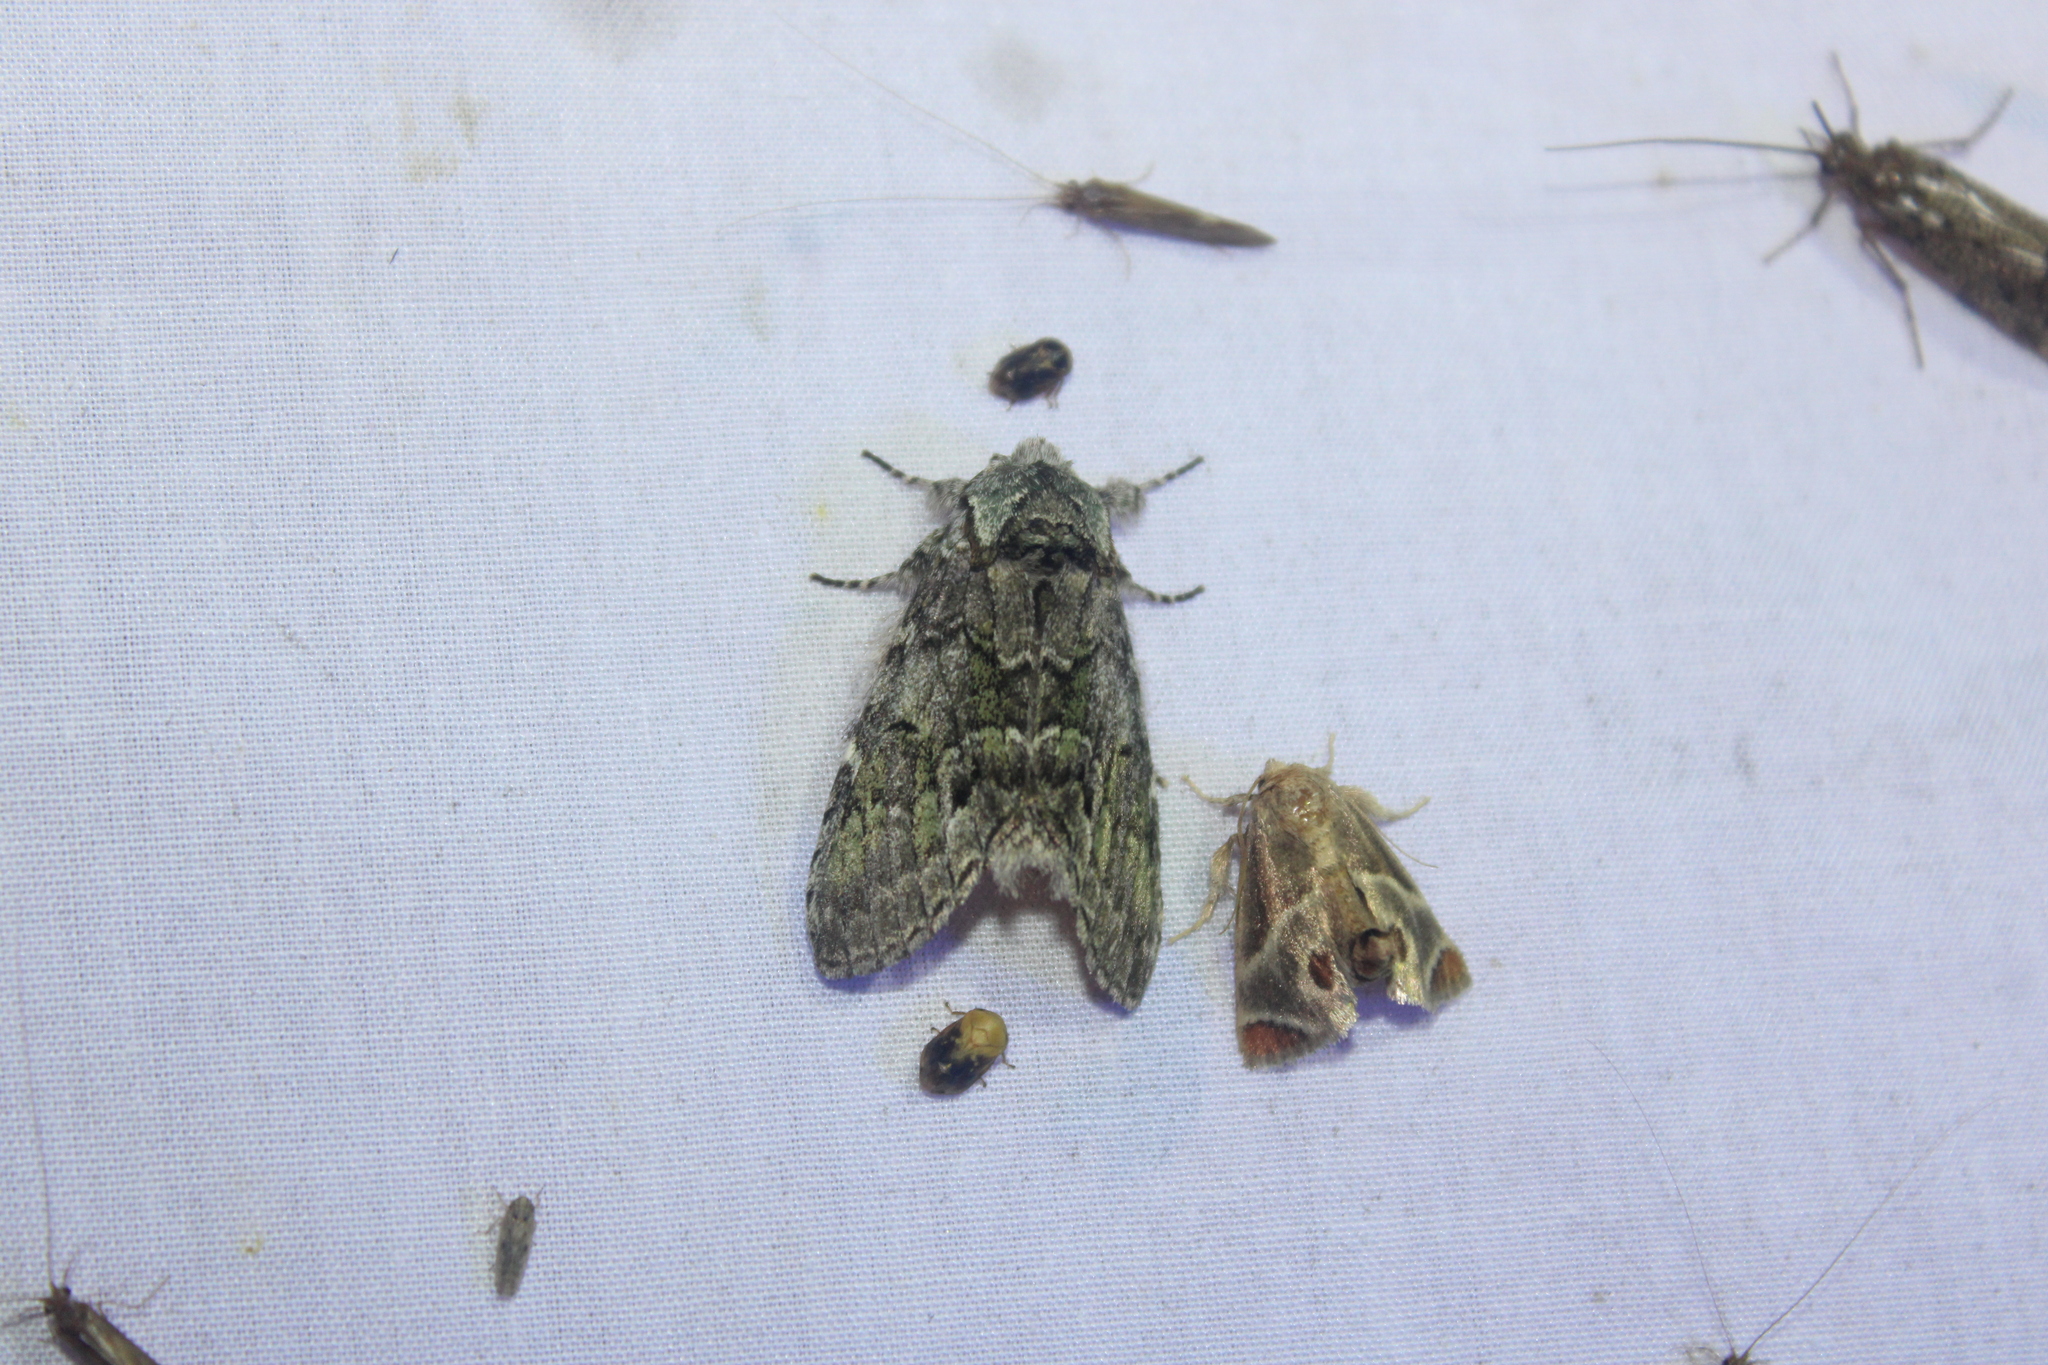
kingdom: Animalia
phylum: Arthropoda
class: Insecta
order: Lepidoptera
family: Notodontidae
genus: Macrurocampa
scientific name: Macrurocampa marthesia
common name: Mottled prominent
